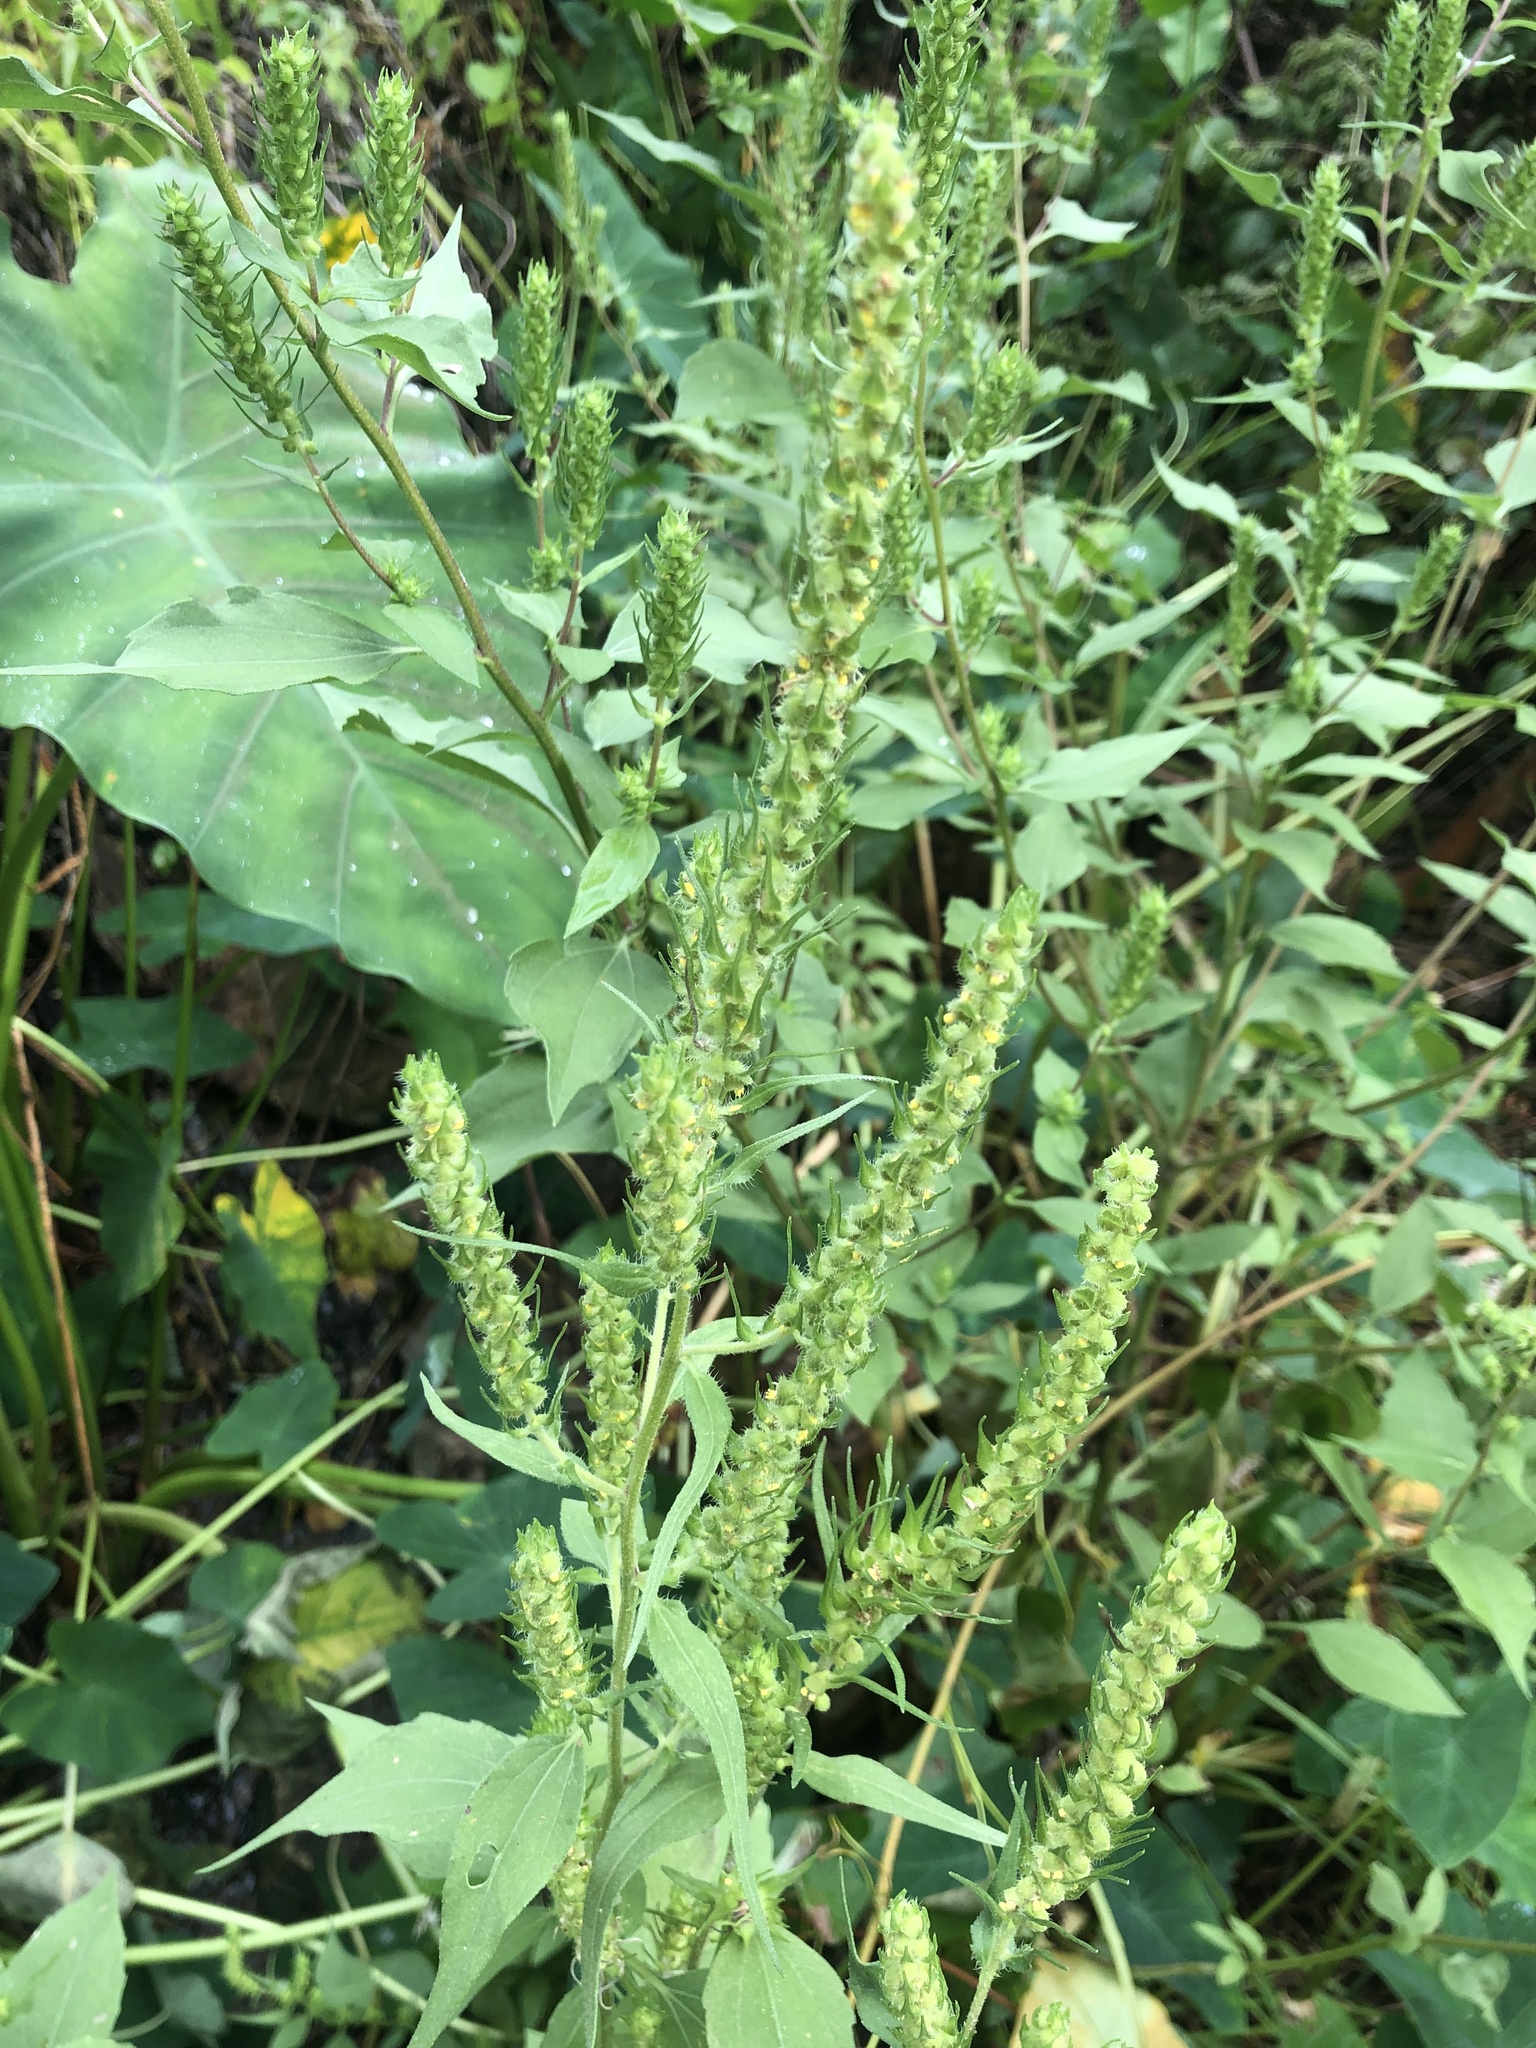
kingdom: Plantae
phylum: Tracheophyta
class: Magnoliopsida
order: Asterales
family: Asteraceae
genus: Iva
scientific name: Iva annua
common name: Marsh-elder
